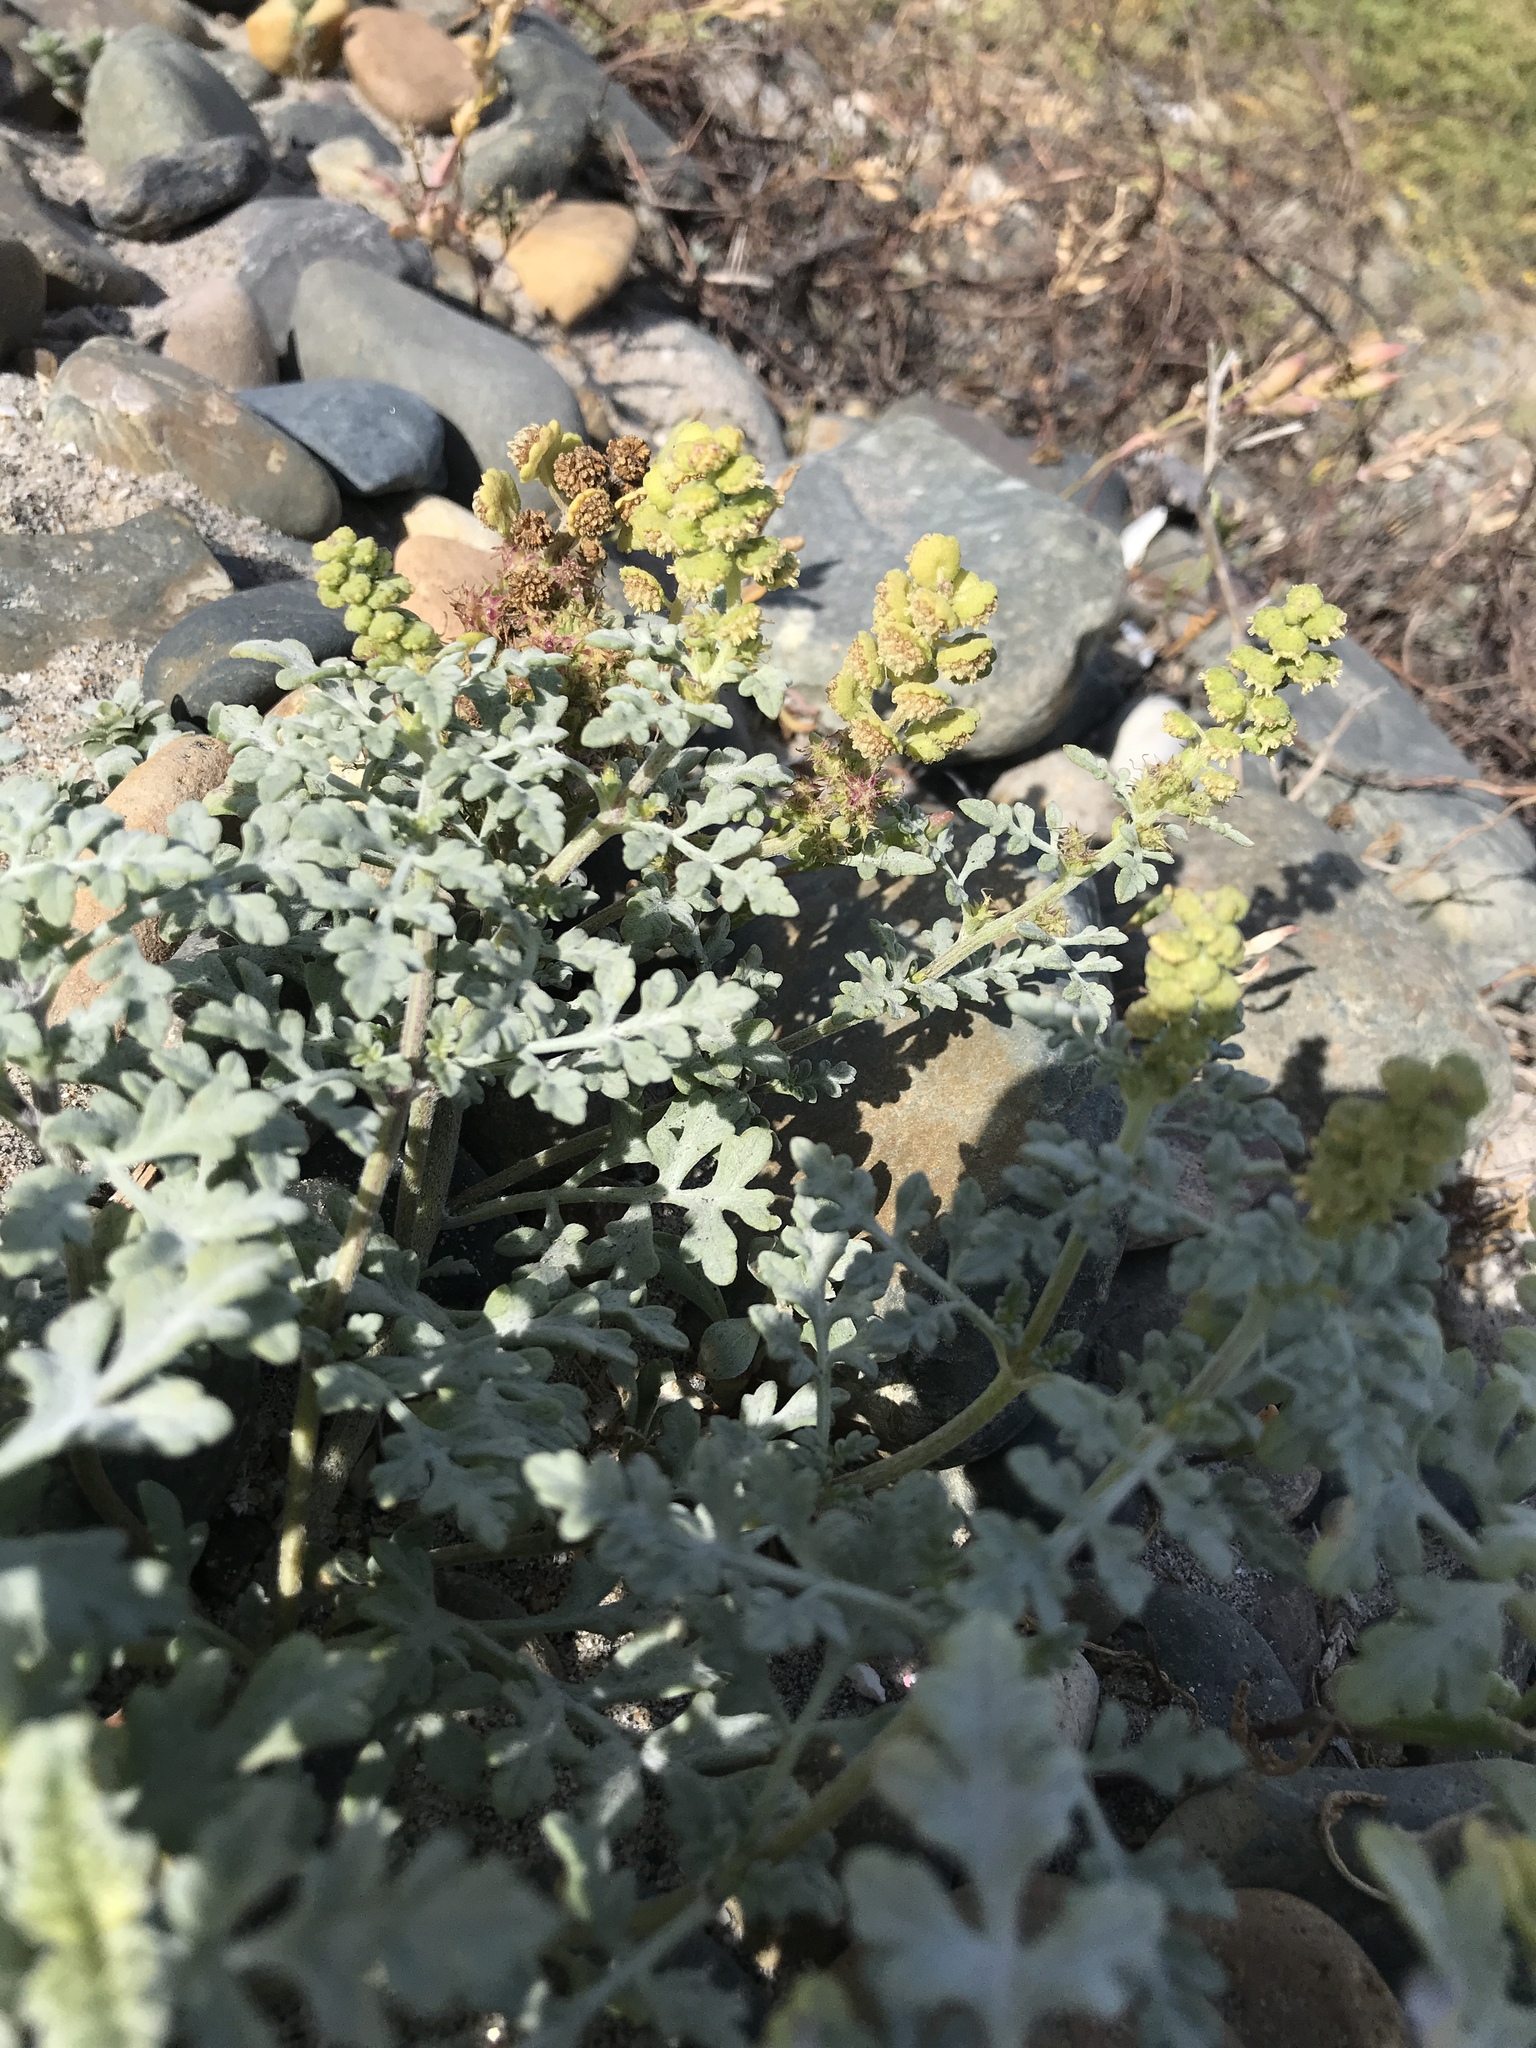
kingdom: Plantae
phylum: Tracheophyta
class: Magnoliopsida
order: Asterales
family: Asteraceae
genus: Ambrosia
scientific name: Ambrosia chamissonis
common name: Beachbur
